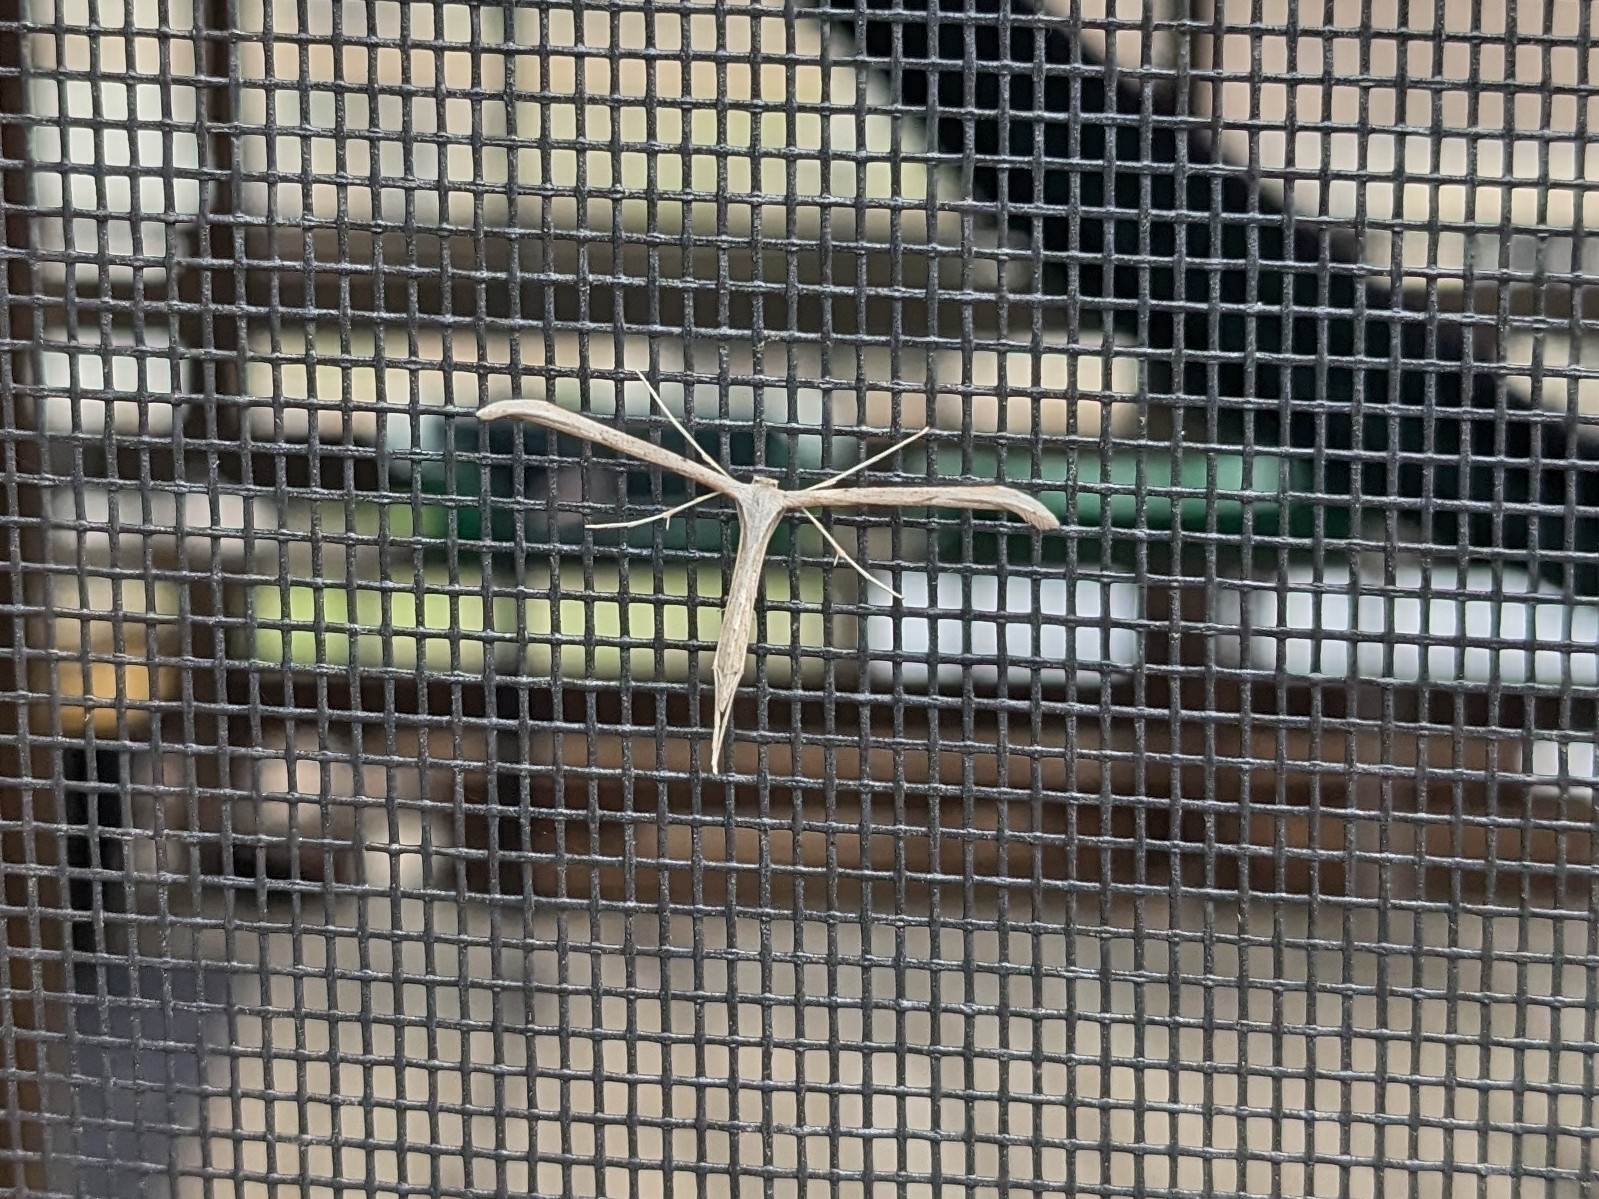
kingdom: Animalia
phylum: Arthropoda
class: Insecta
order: Lepidoptera
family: Pterophoridae
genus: Emmelina
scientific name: Emmelina monodactyla
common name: Common plume
